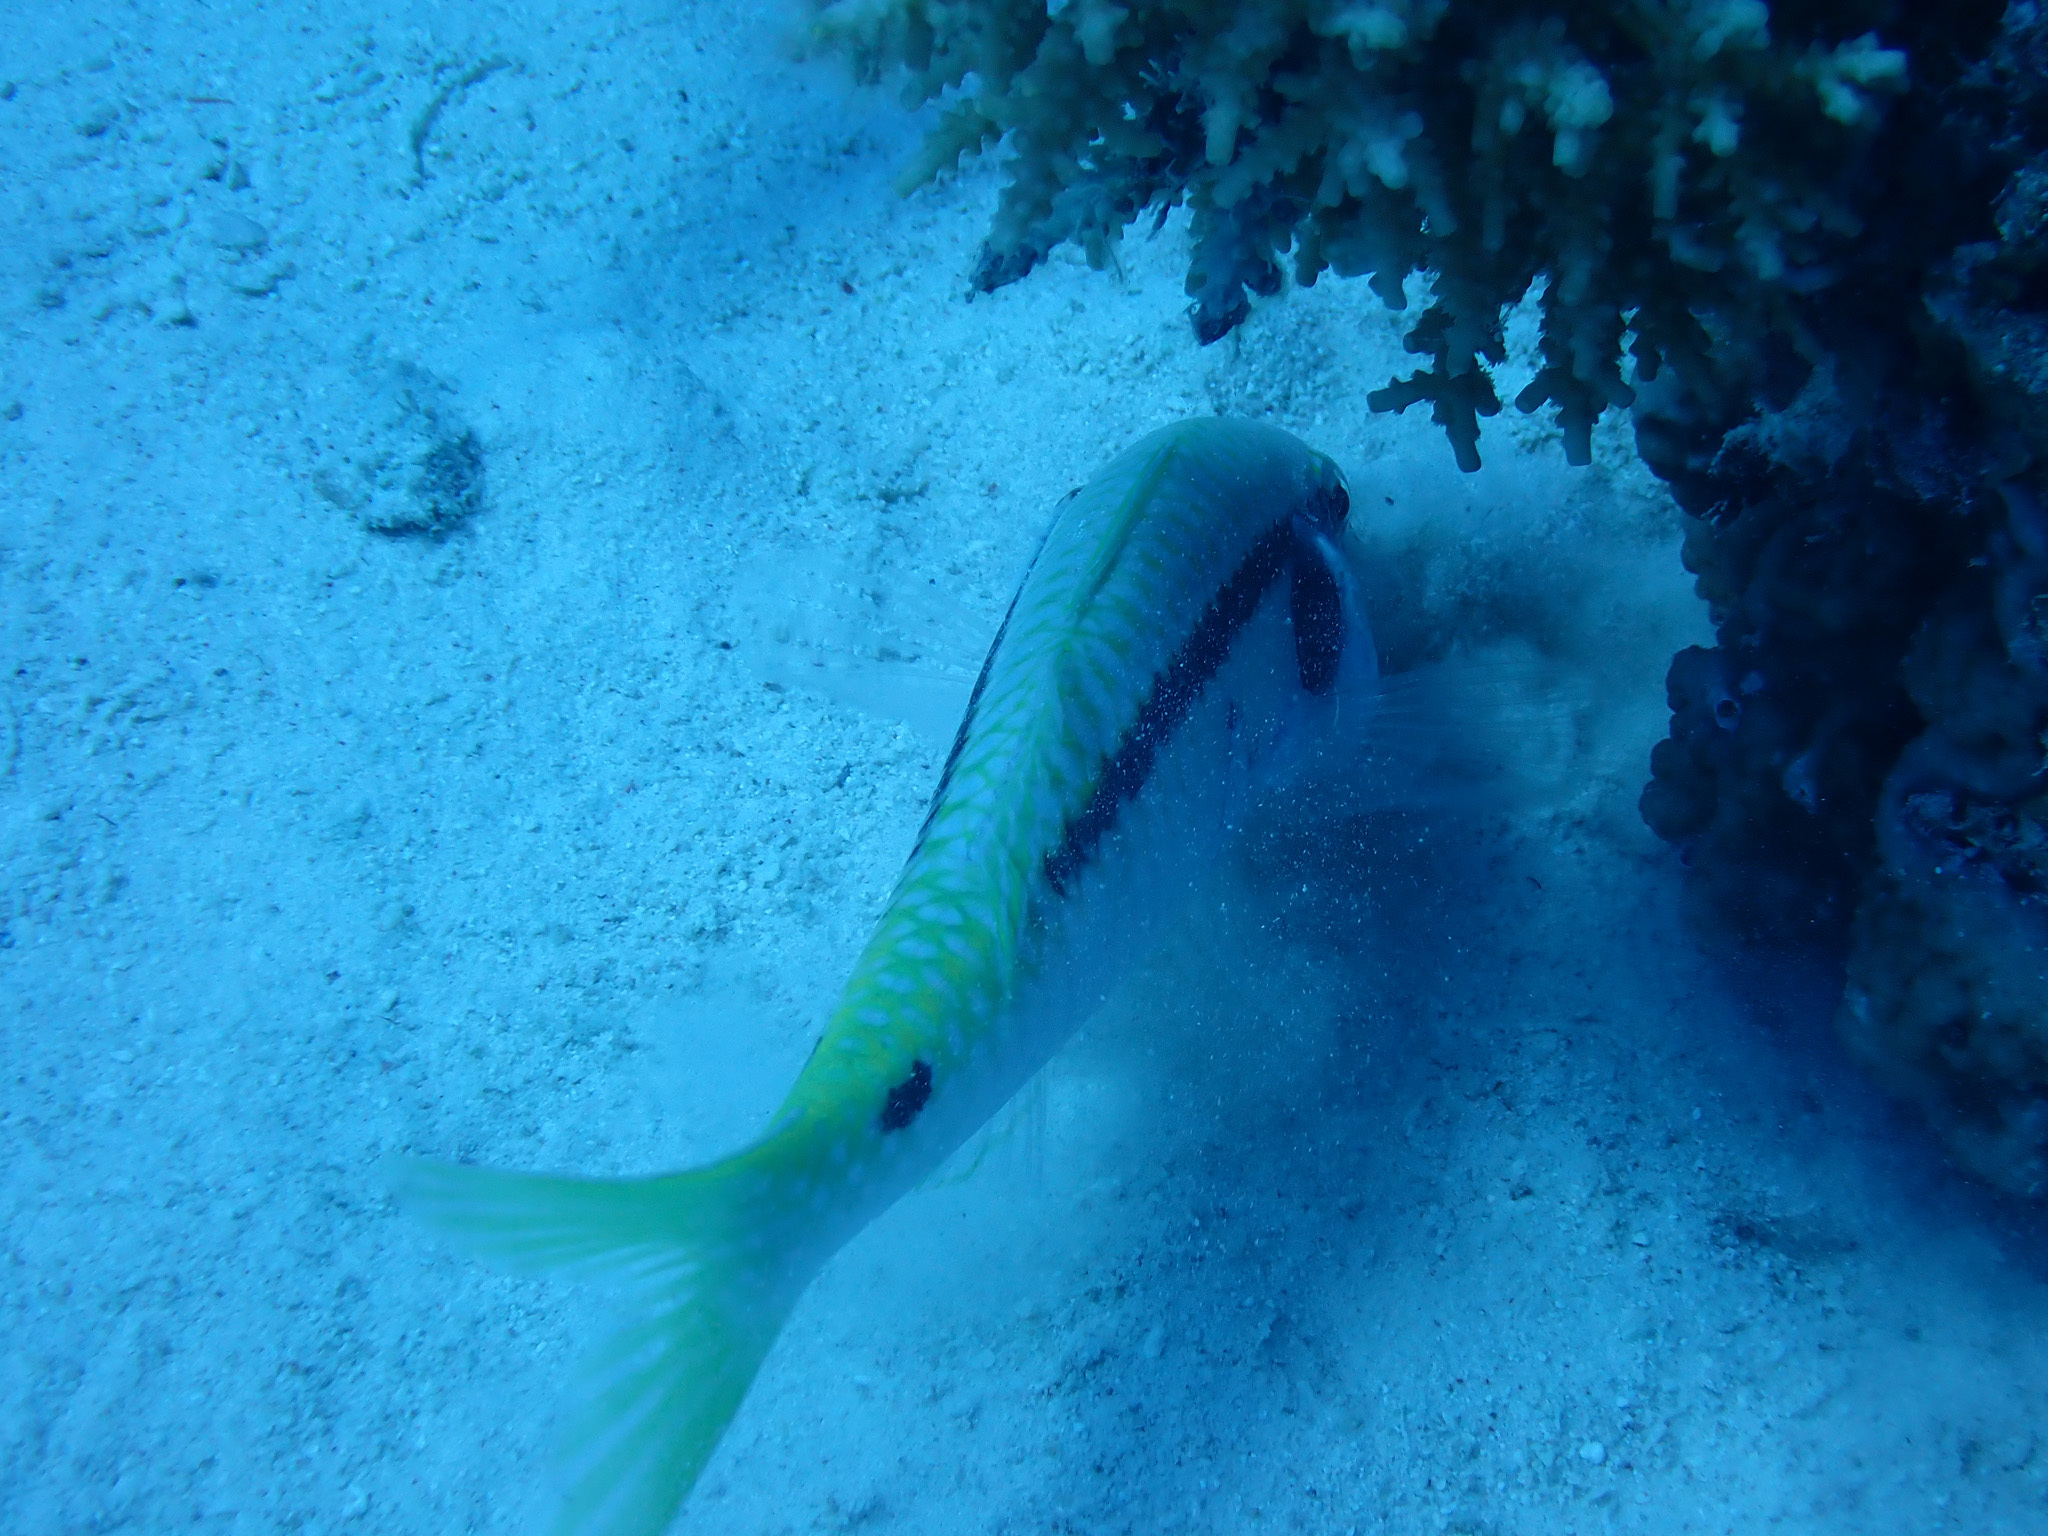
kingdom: Animalia
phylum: Chordata
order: Perciformes
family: Mullidae
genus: Parupeneus
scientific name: Parupeneus forsskali
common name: Red sea goatfish
